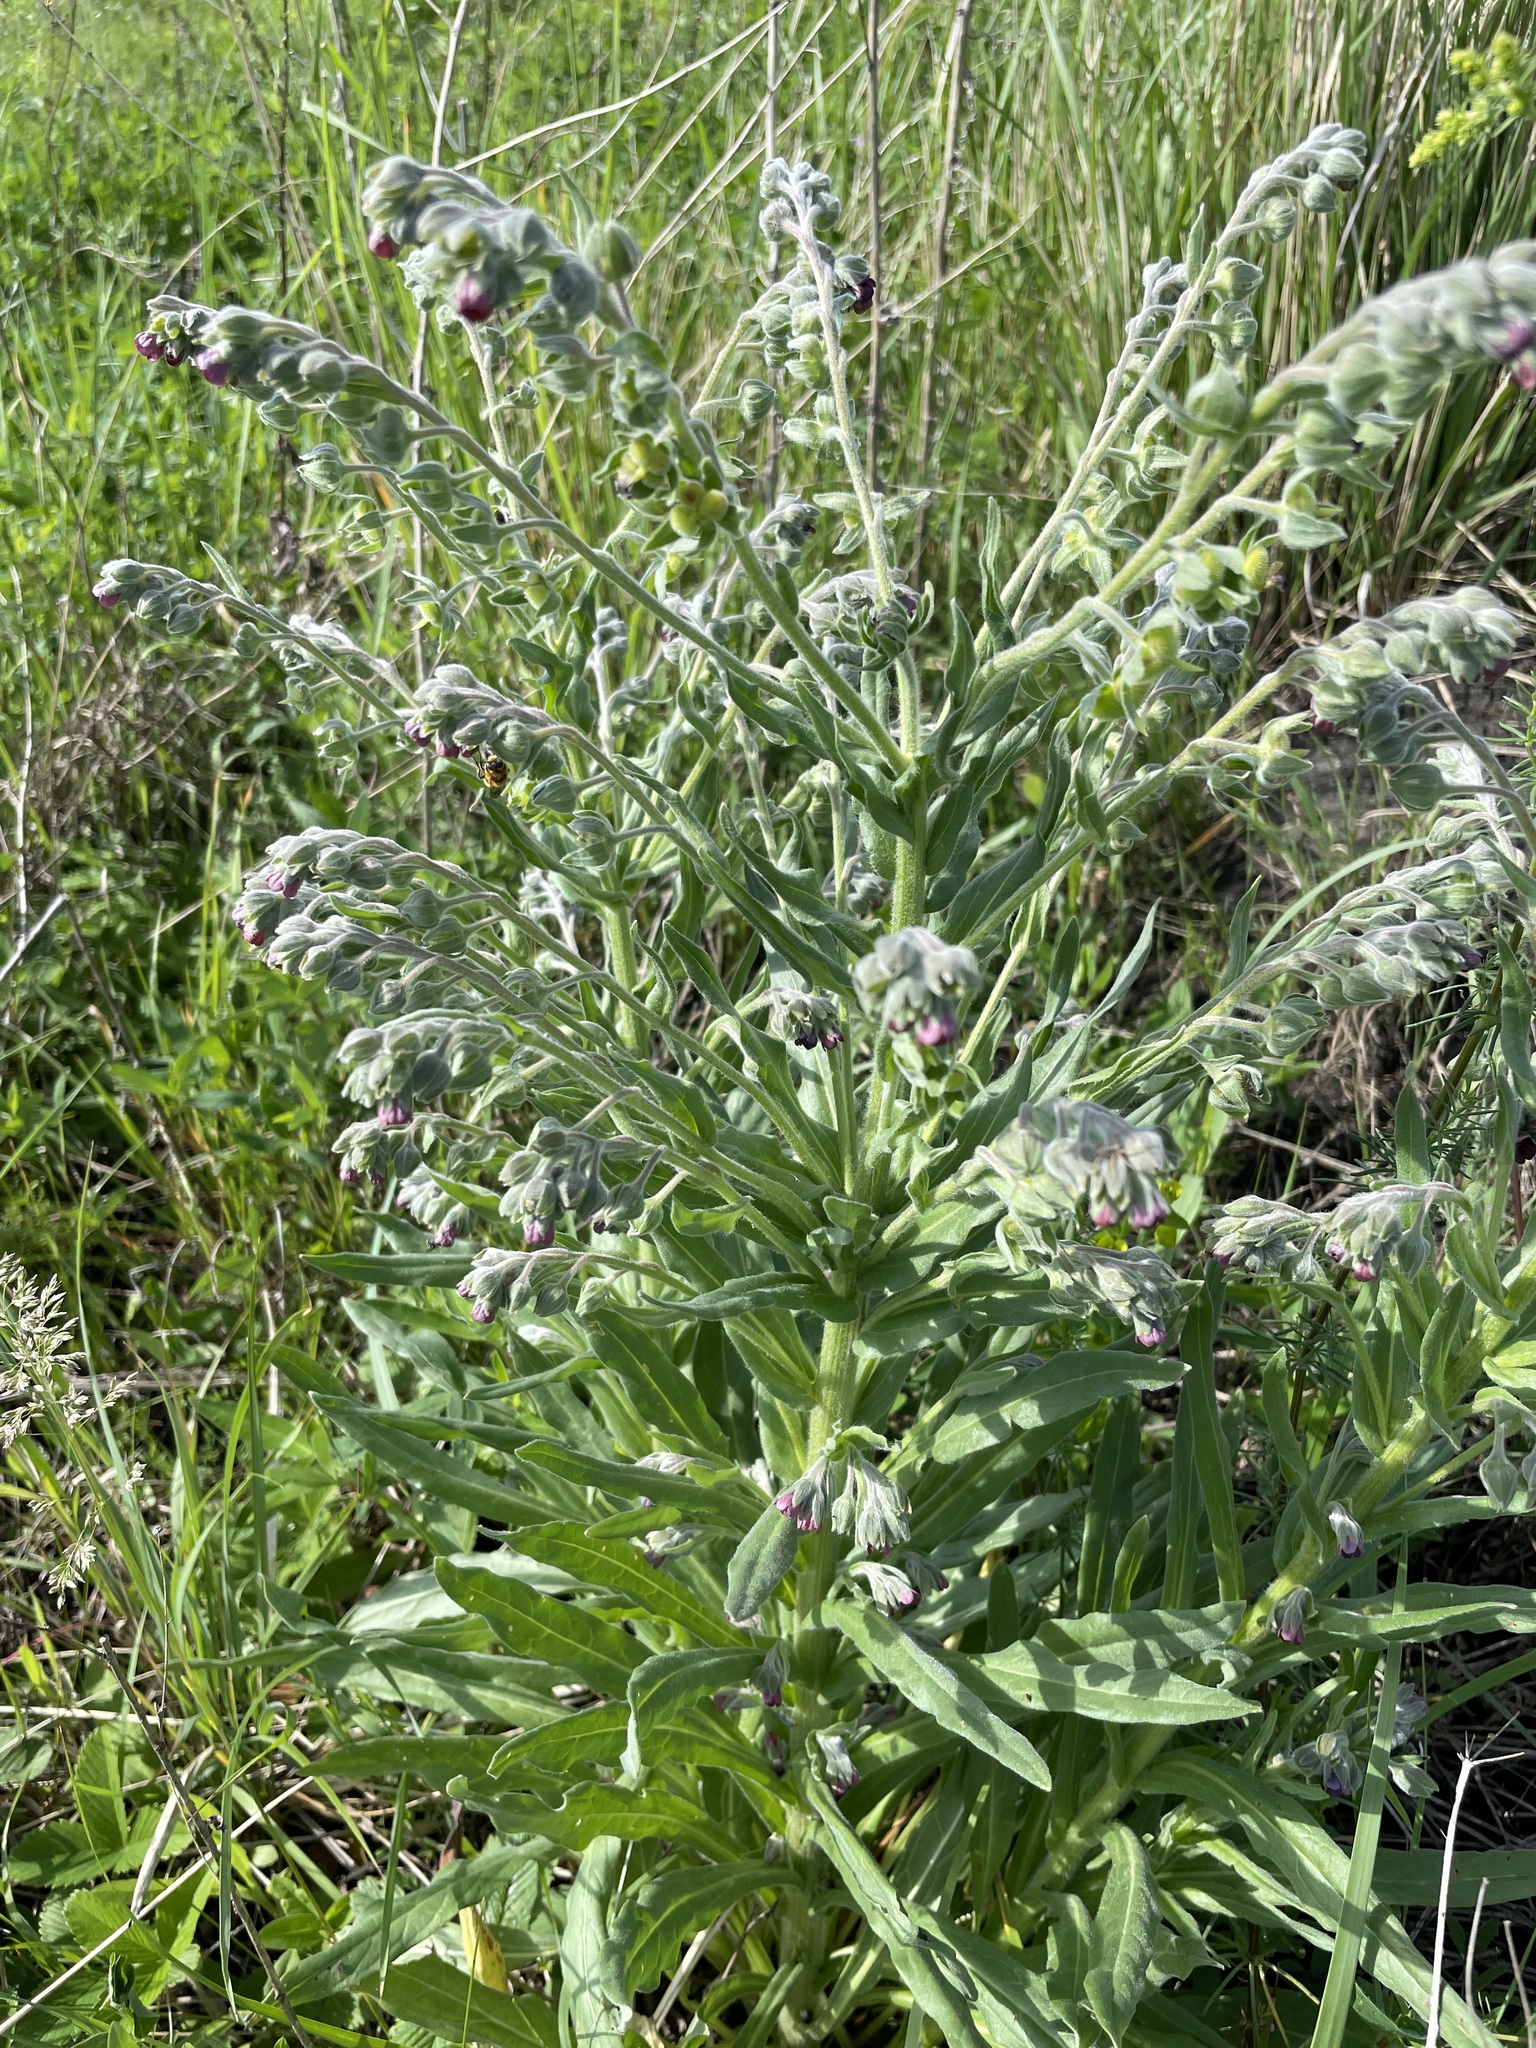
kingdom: Plantae
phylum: Tracheophyta
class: Magnoliopsida
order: Boraginales
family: Boraginaceae
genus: Cynoglossum
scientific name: Cynoglossum officinale
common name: Hound's-tongue
